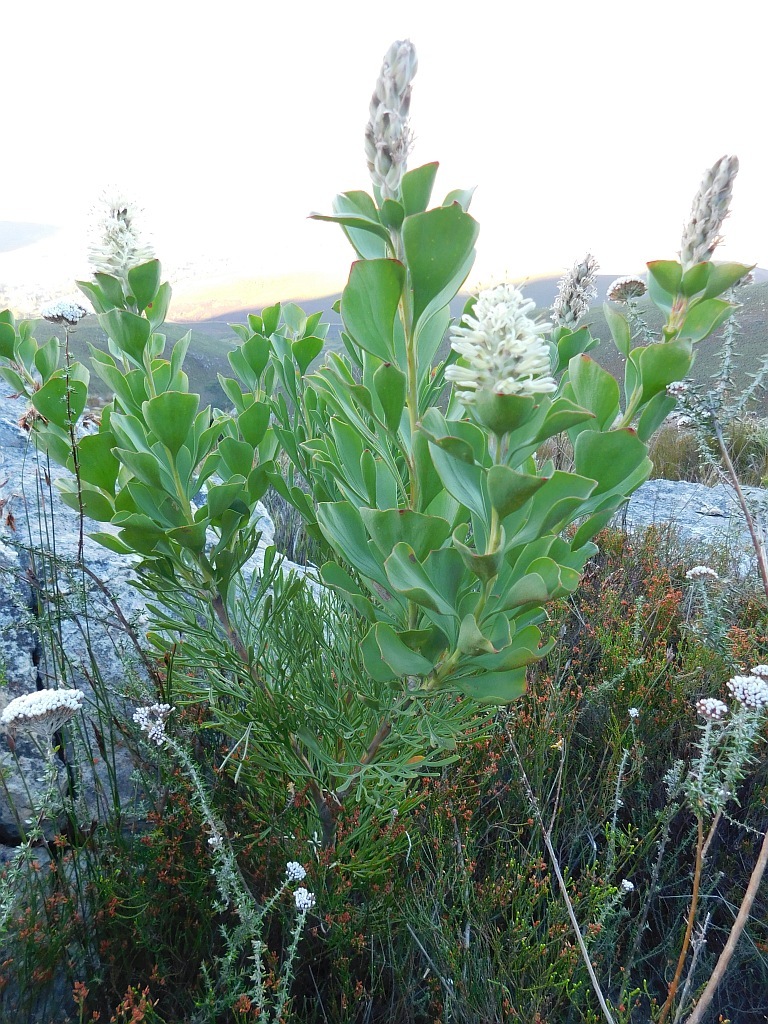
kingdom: Plantae
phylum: Tracheophyta
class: Magnoliopsida
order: Proteales
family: Proteaceae
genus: Paranomus
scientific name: Paranomus sceptrum-gustavianus
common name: King gustav's sceptre
